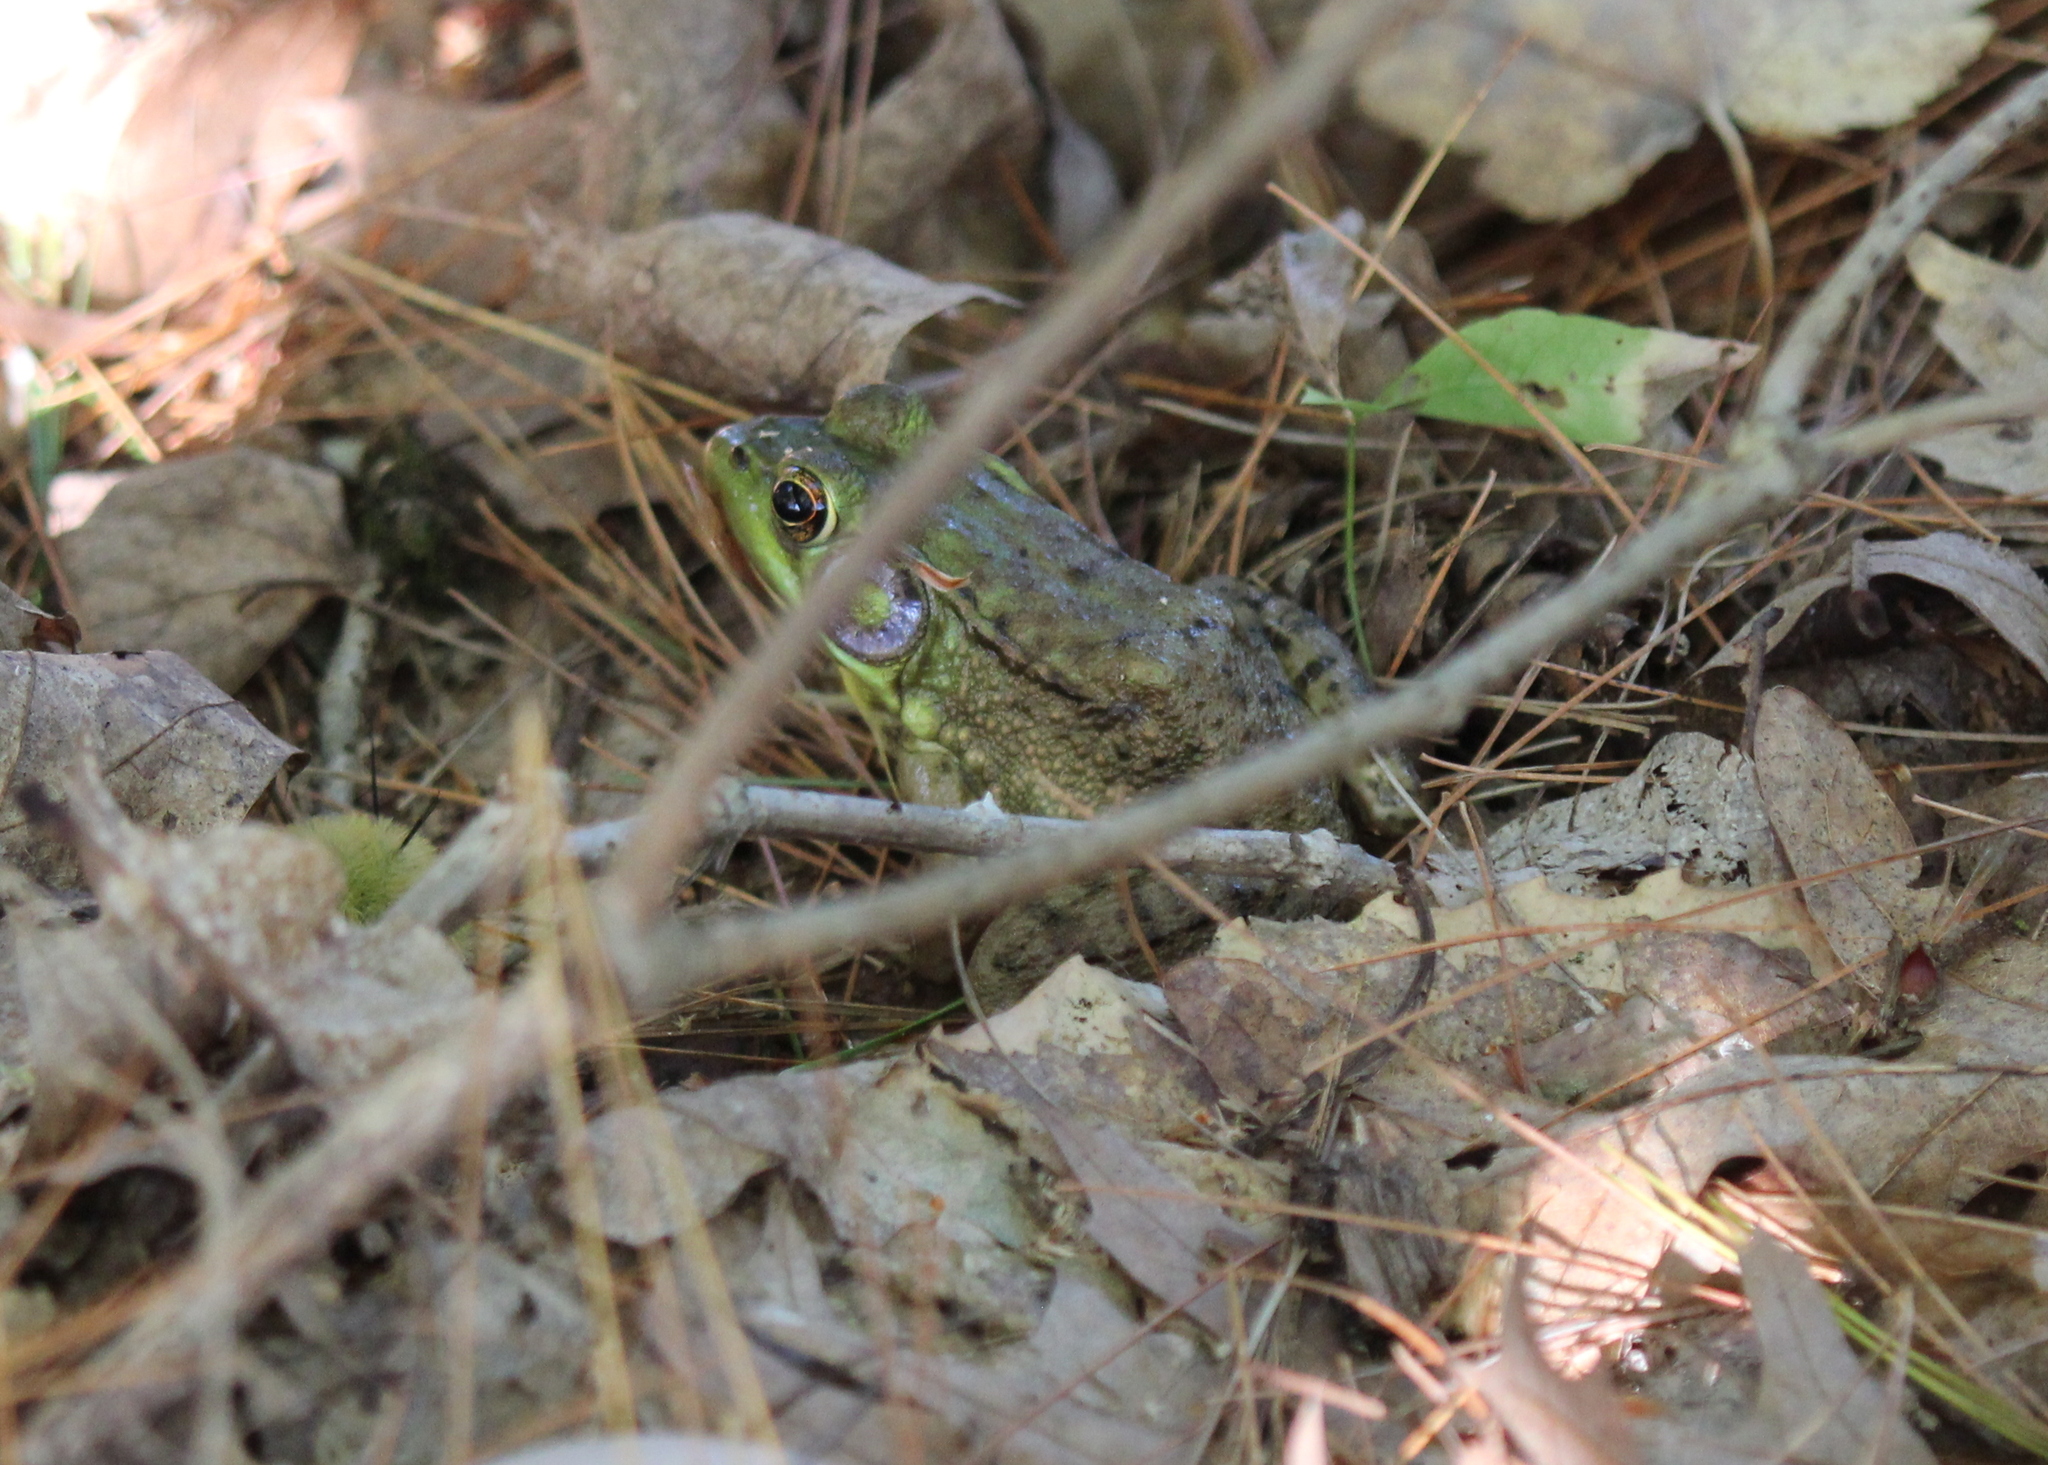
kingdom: Animalia
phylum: Chordata
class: Amphibia
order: Anura
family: Ranidae
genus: Lithobates
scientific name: Lithobates clamitans
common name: Green frog
